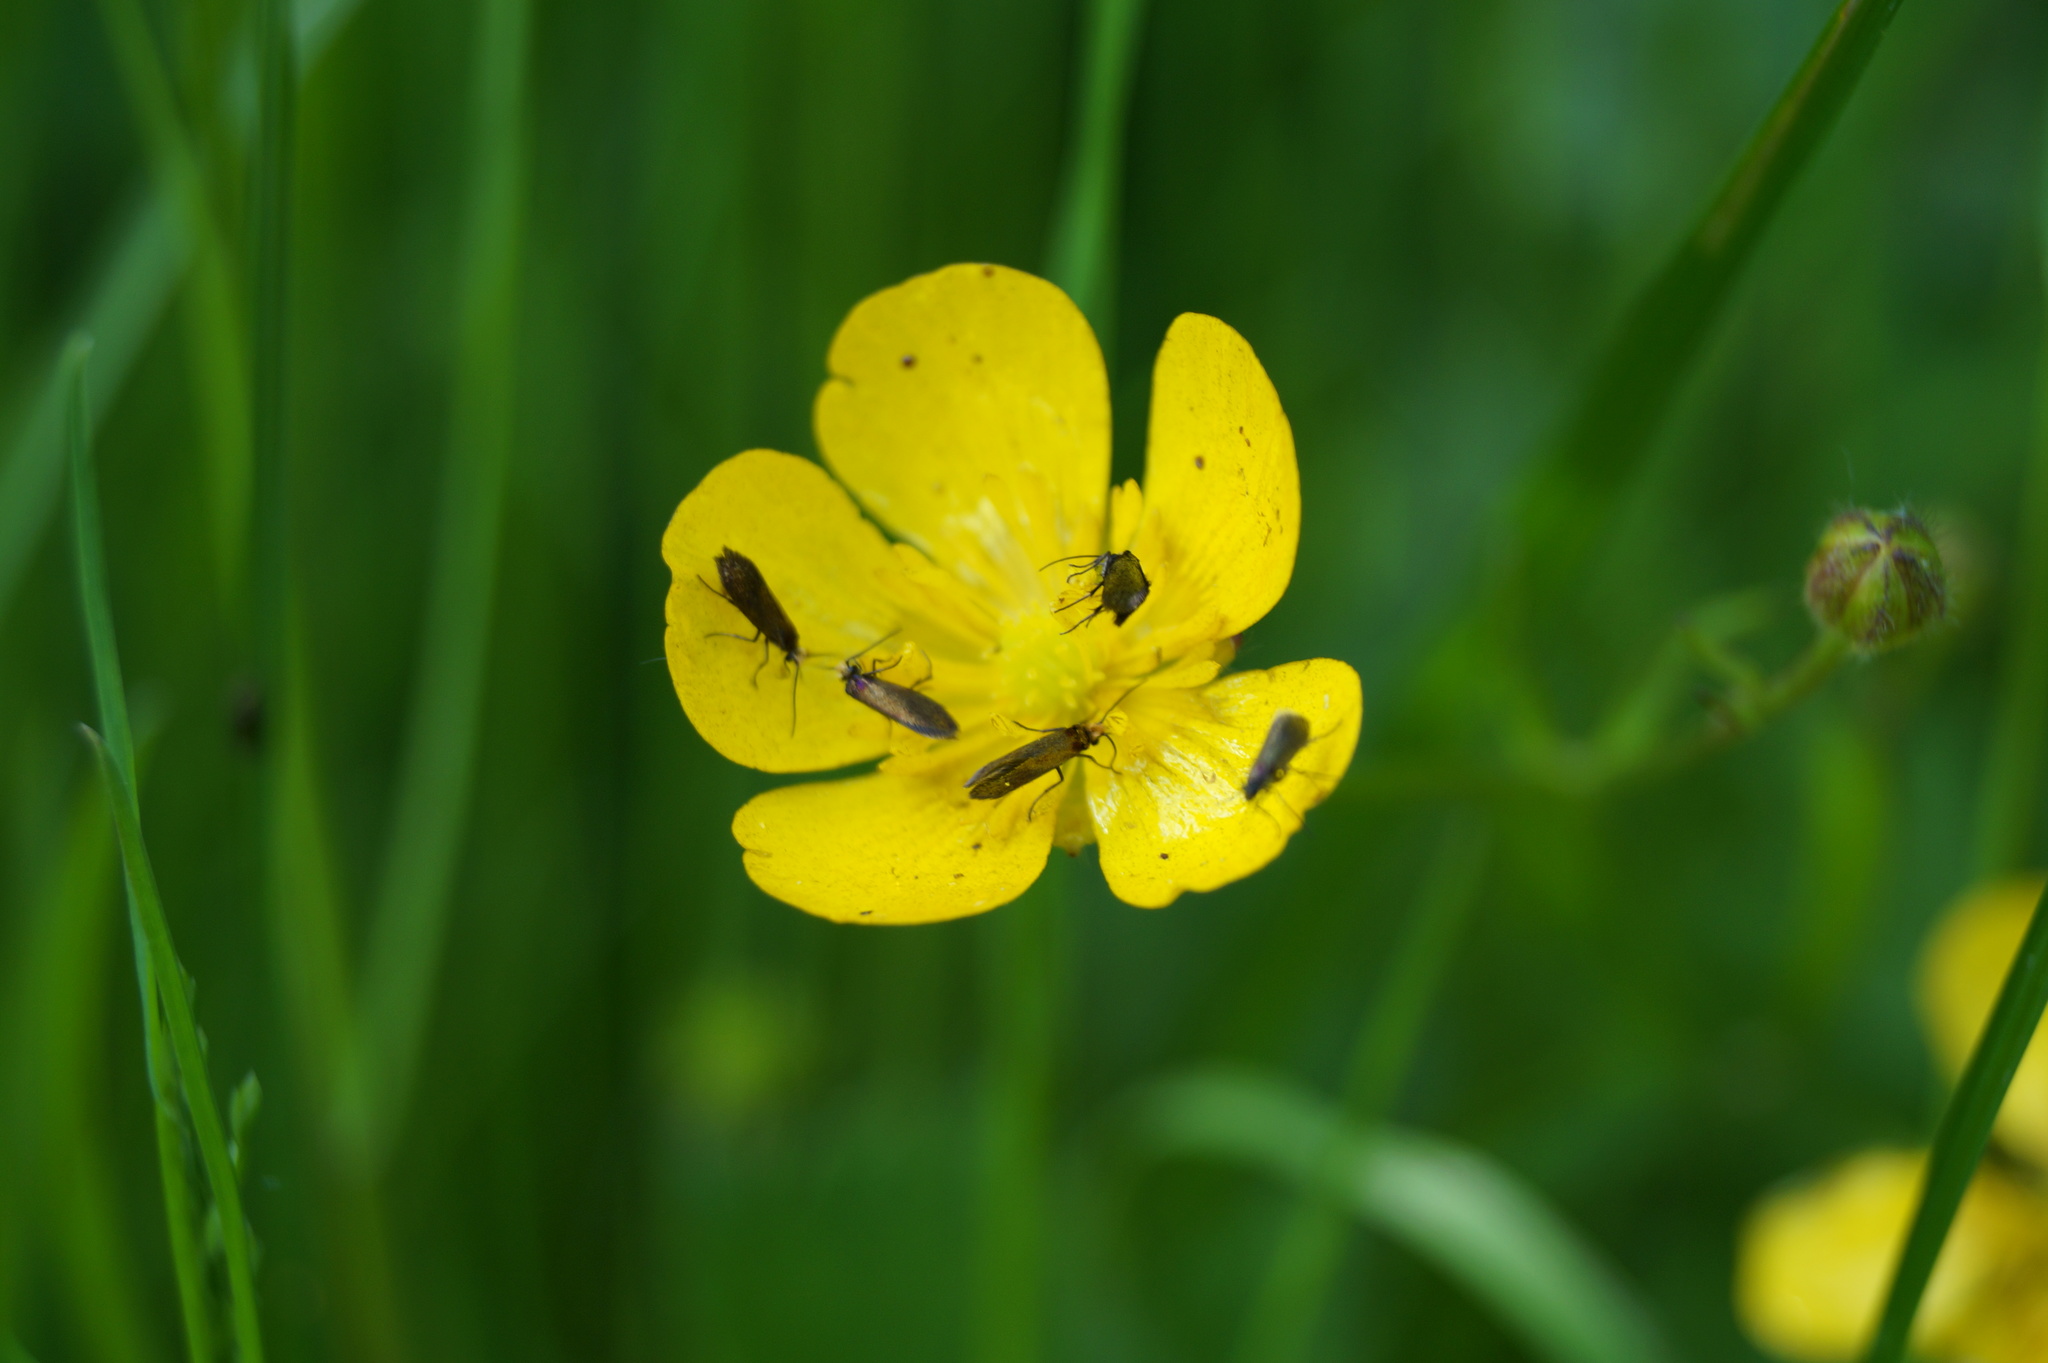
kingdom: Animalia
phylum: Arthropoda
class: Insecta
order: Lepidoptera
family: Micropterigidae
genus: Micropterix
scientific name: Micropterix calthella
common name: Plain gold
